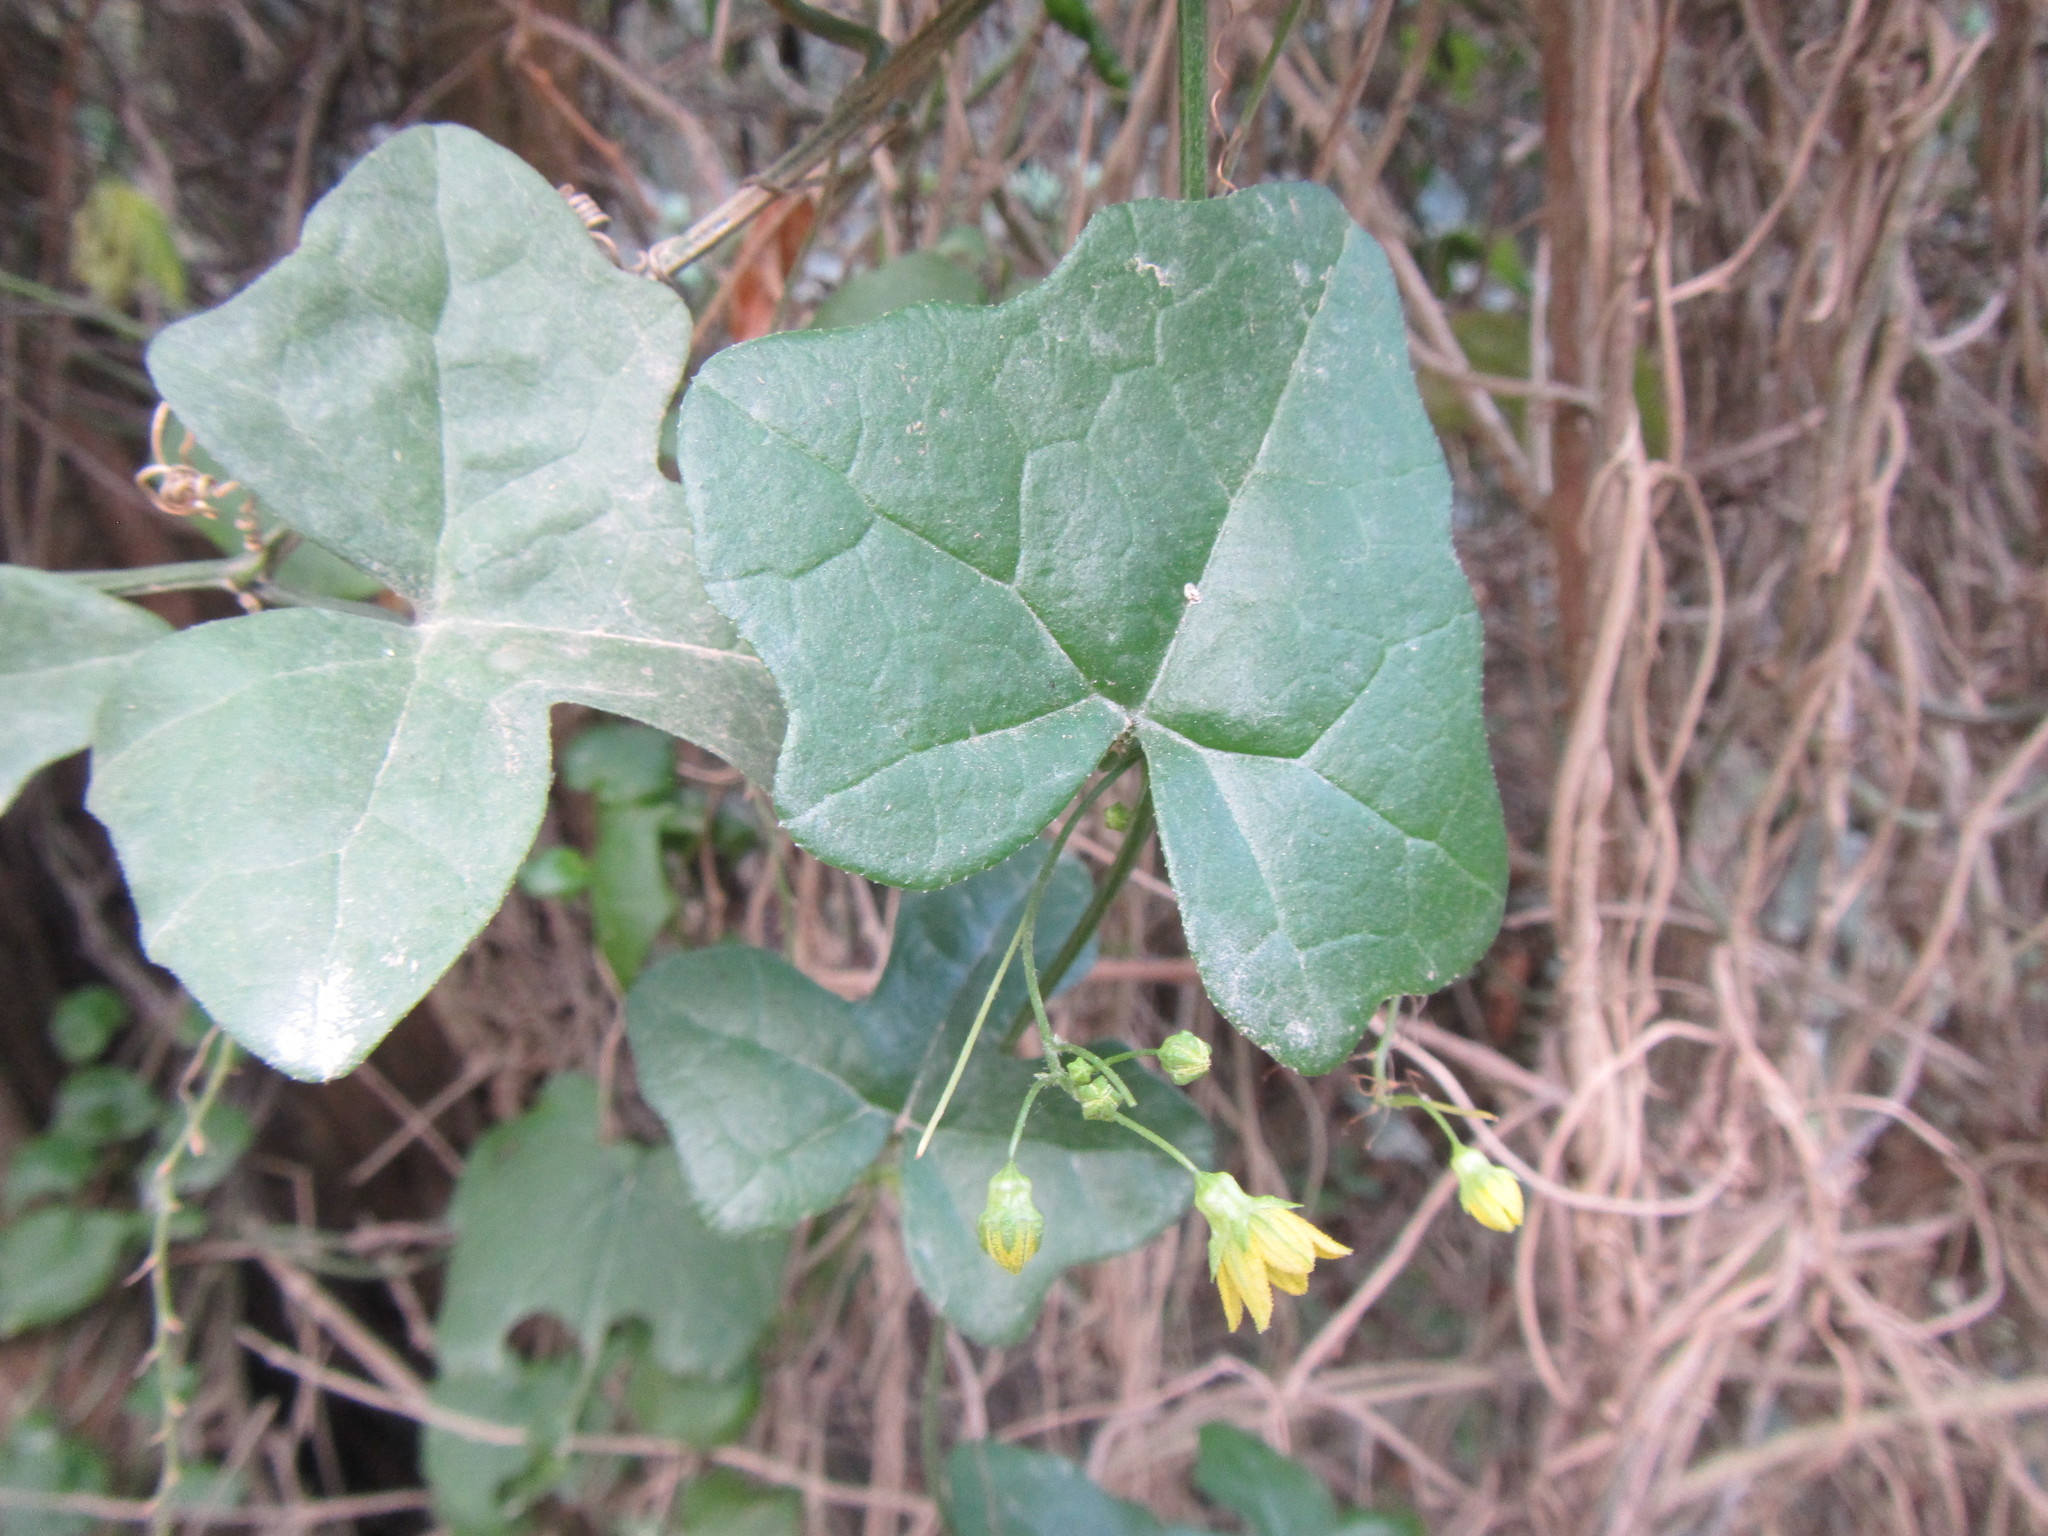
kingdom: Plantae
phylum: Tracheophyta
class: Magnoliopsida
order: Cucurbitales
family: Cucurbitaceae
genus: Kedrostis
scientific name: Kedrostis nana
